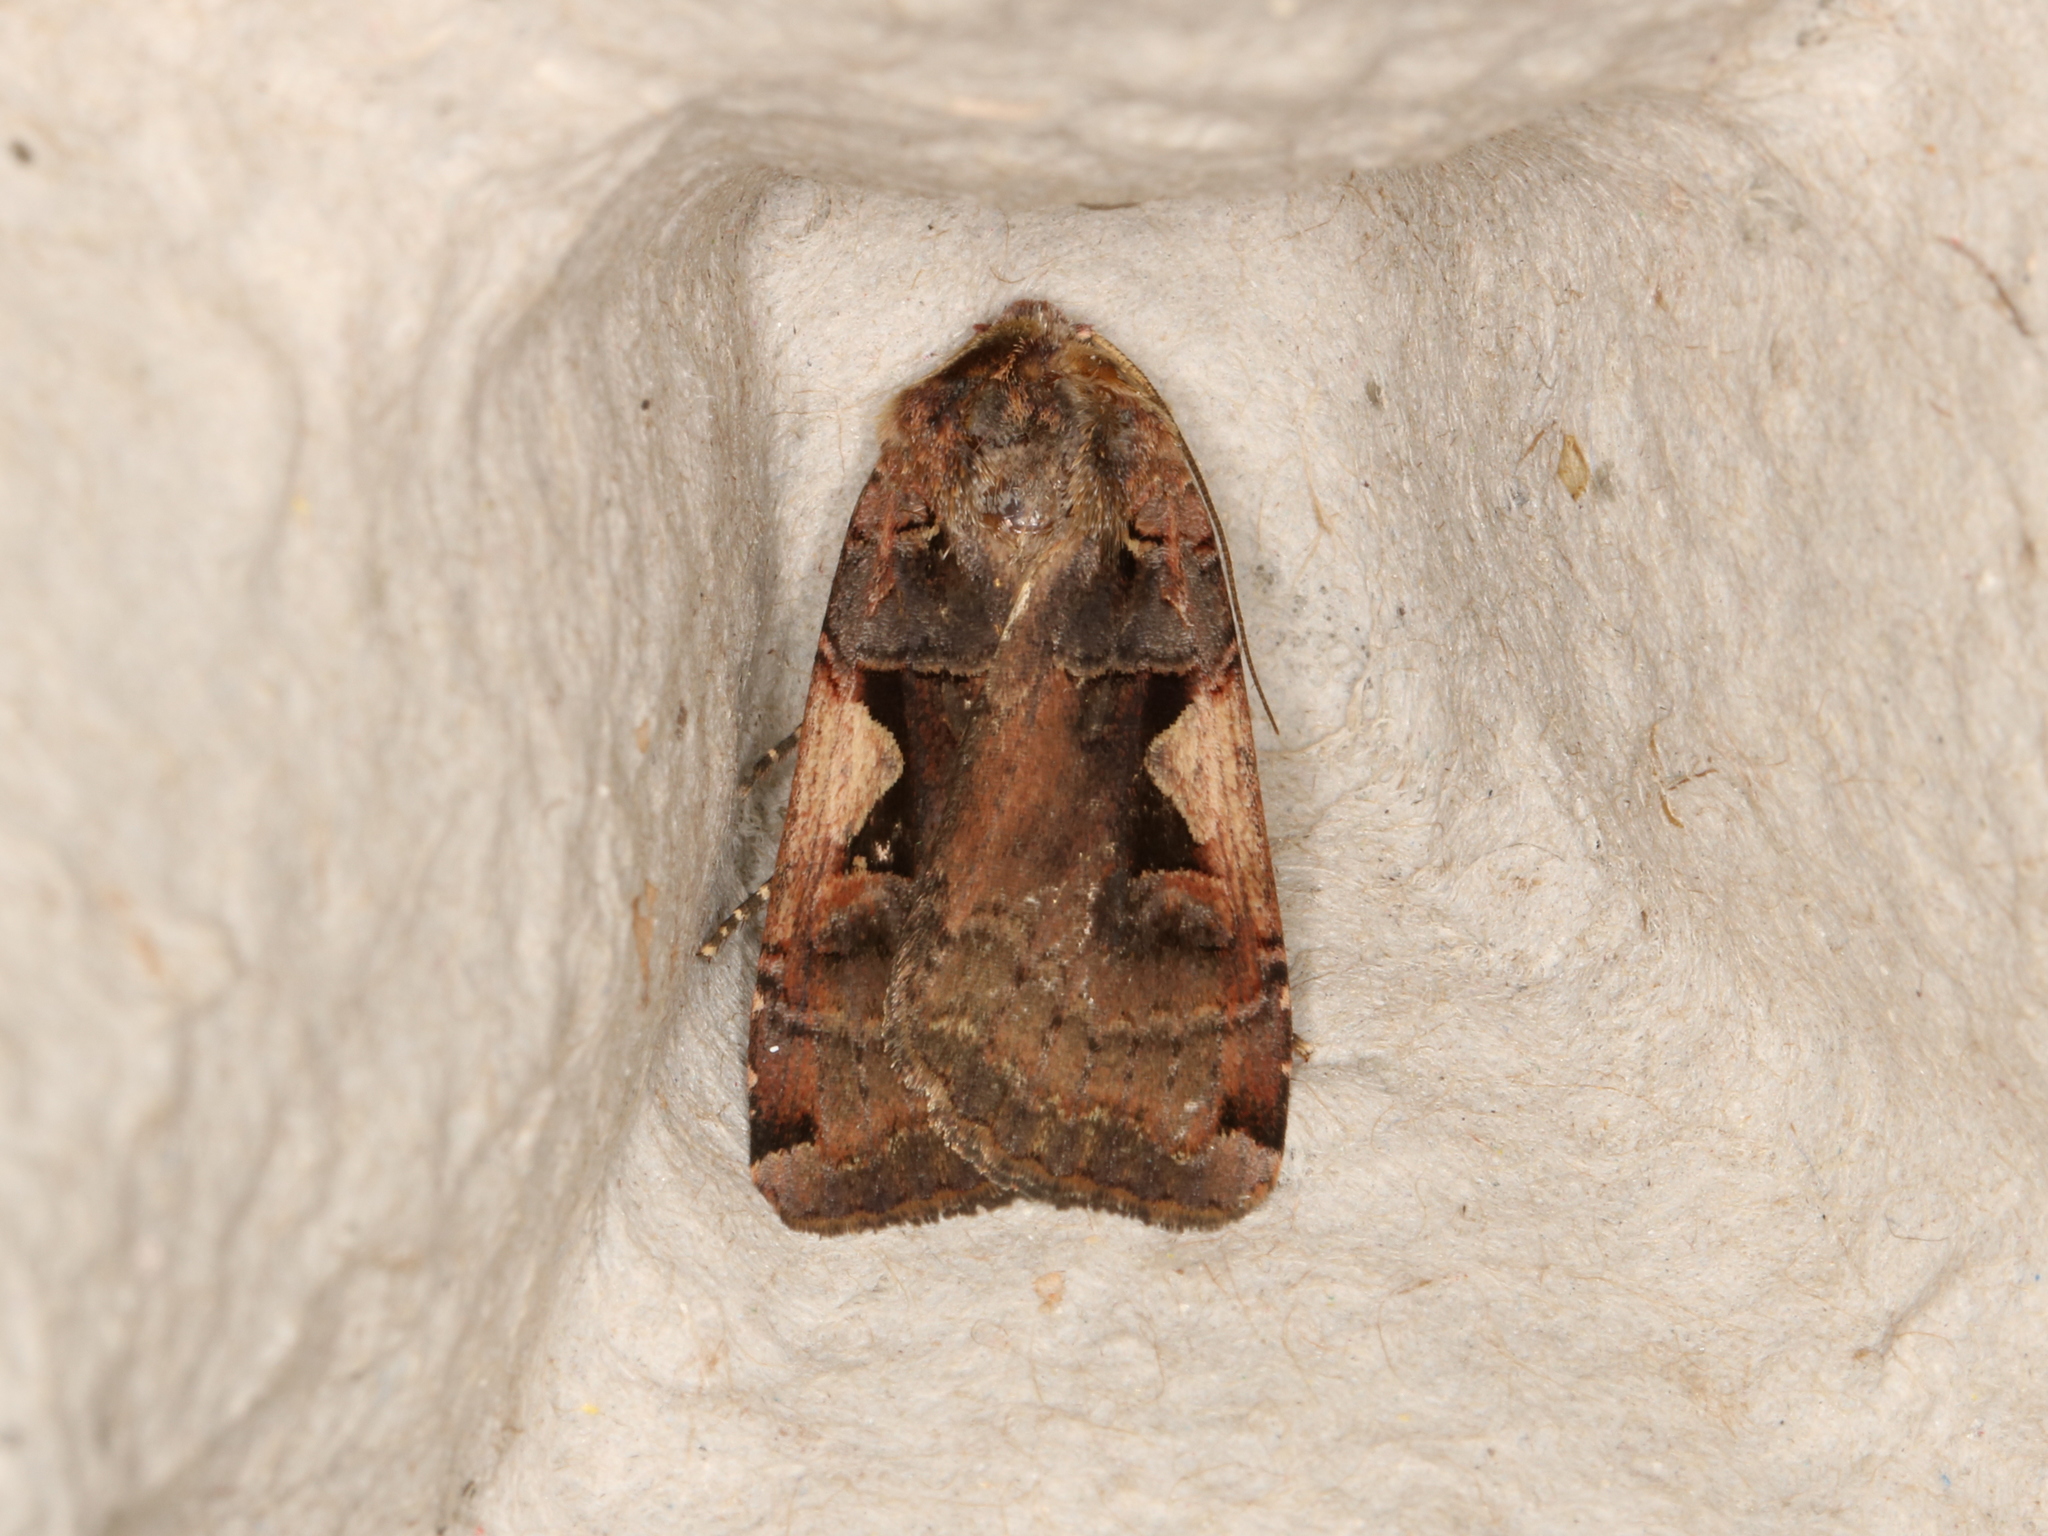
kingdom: Animalia
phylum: Arthropoda
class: Insecta
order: Lepidoptera
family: Noctuidae
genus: Xestia
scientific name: Xestia c-nigrum
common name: Setaceous hebrew character
